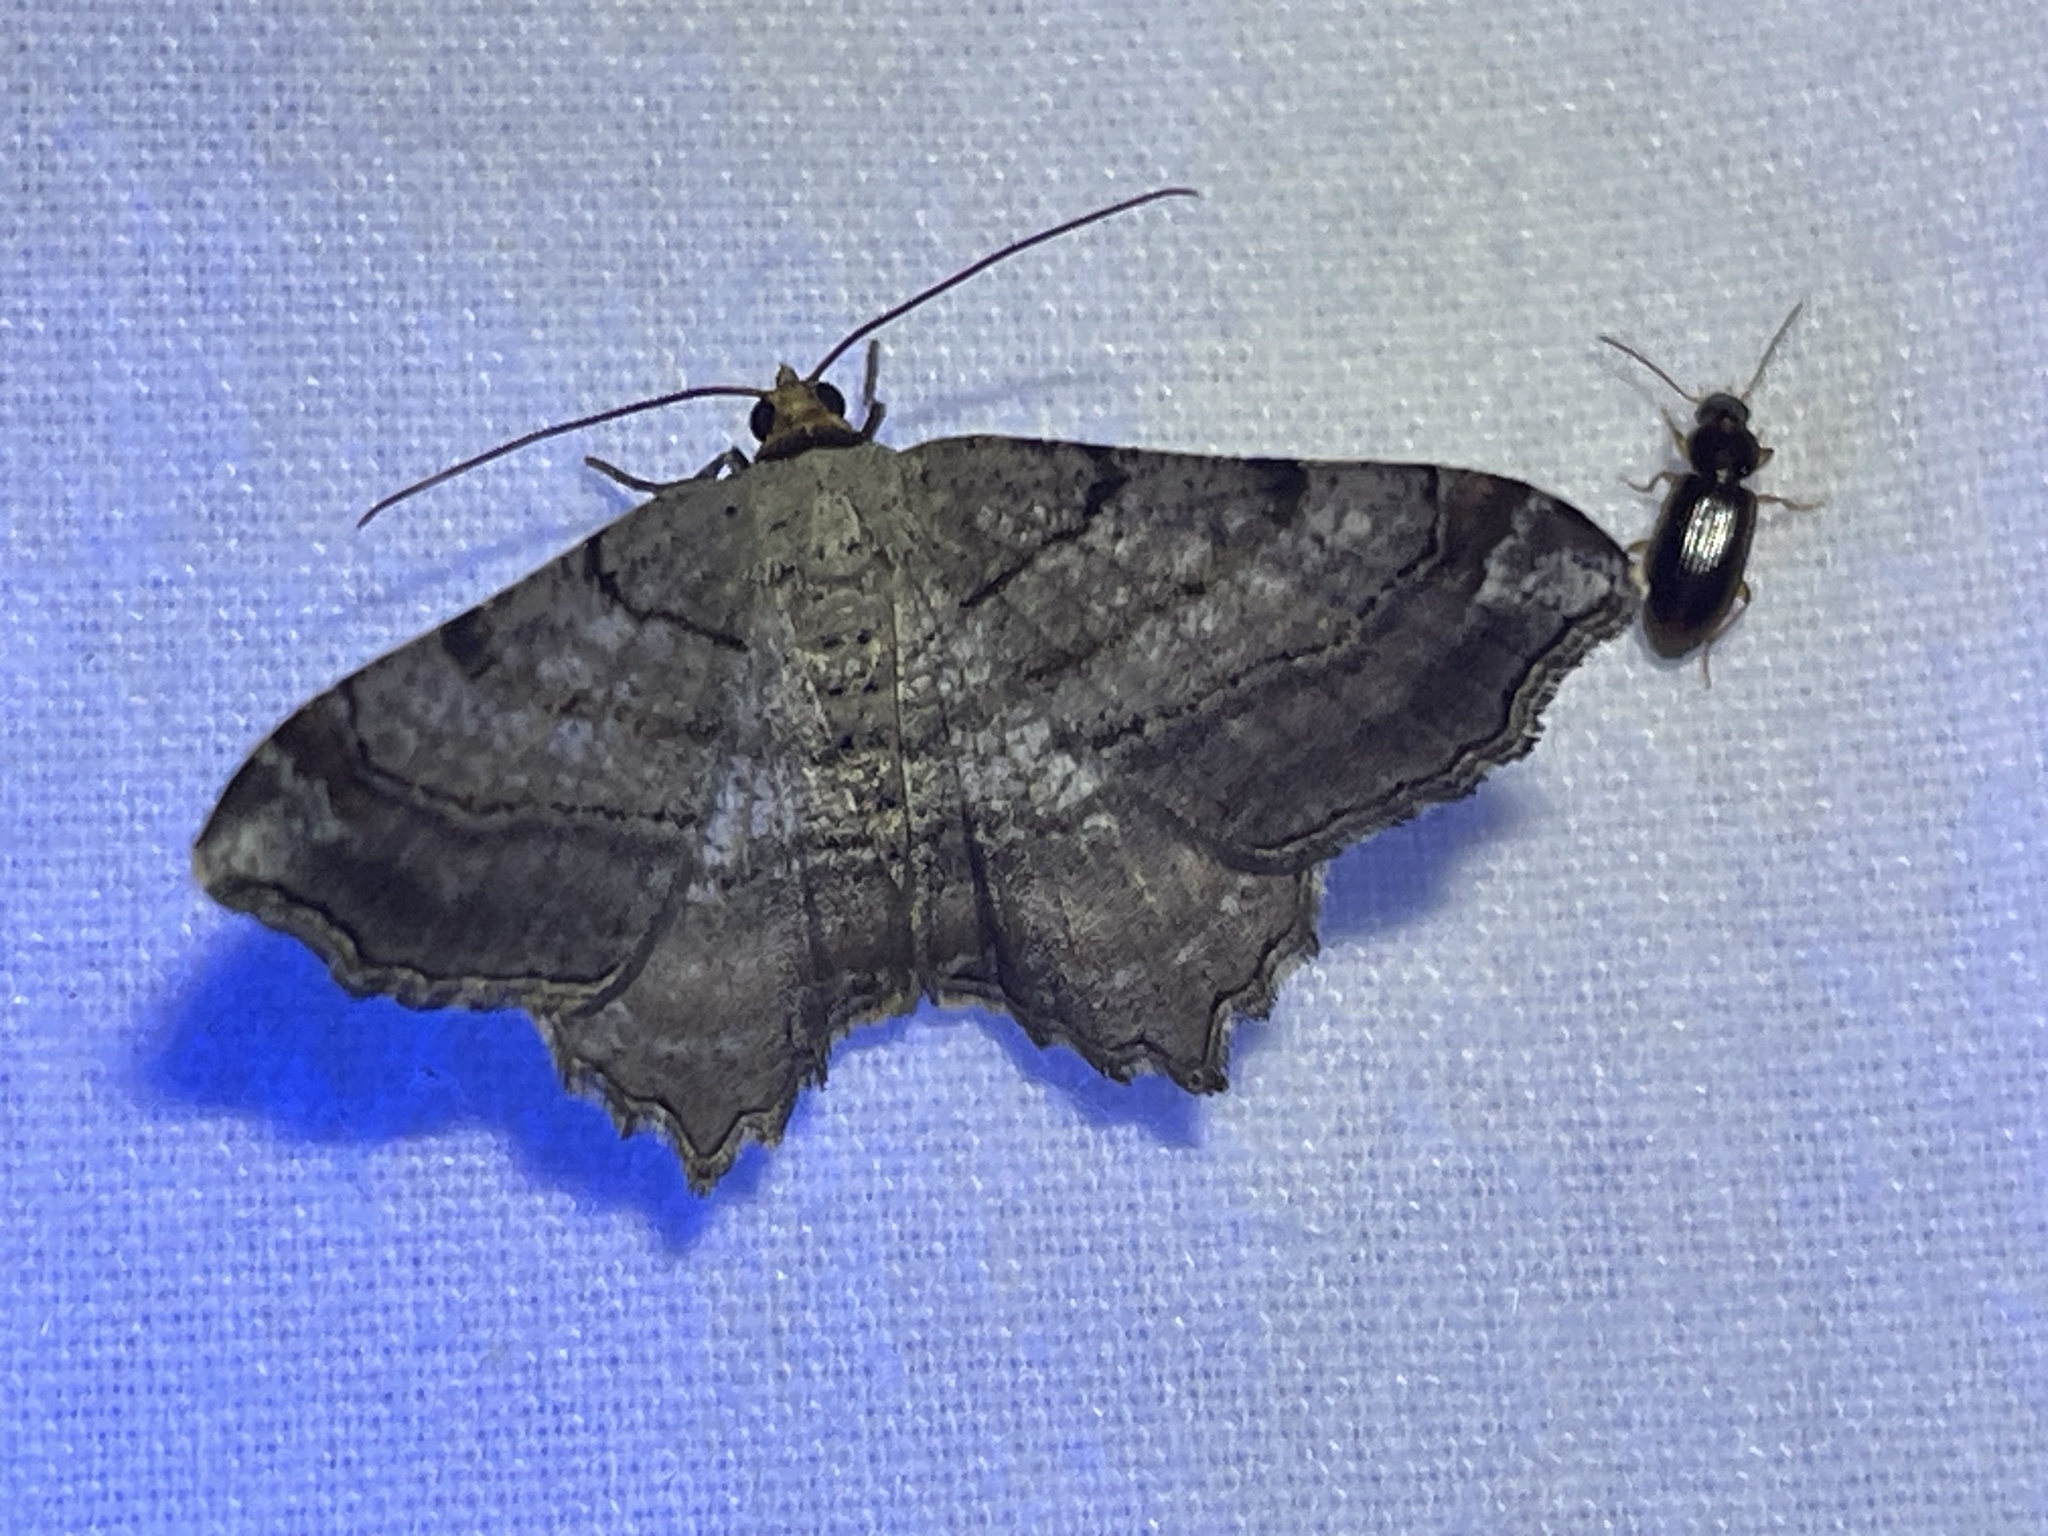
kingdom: Animalia
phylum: Arthropoda
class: Insecta
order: Lepidoptera
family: Geometridae
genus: Macaria
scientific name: Macaria multilineata
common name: Many-lined angle
